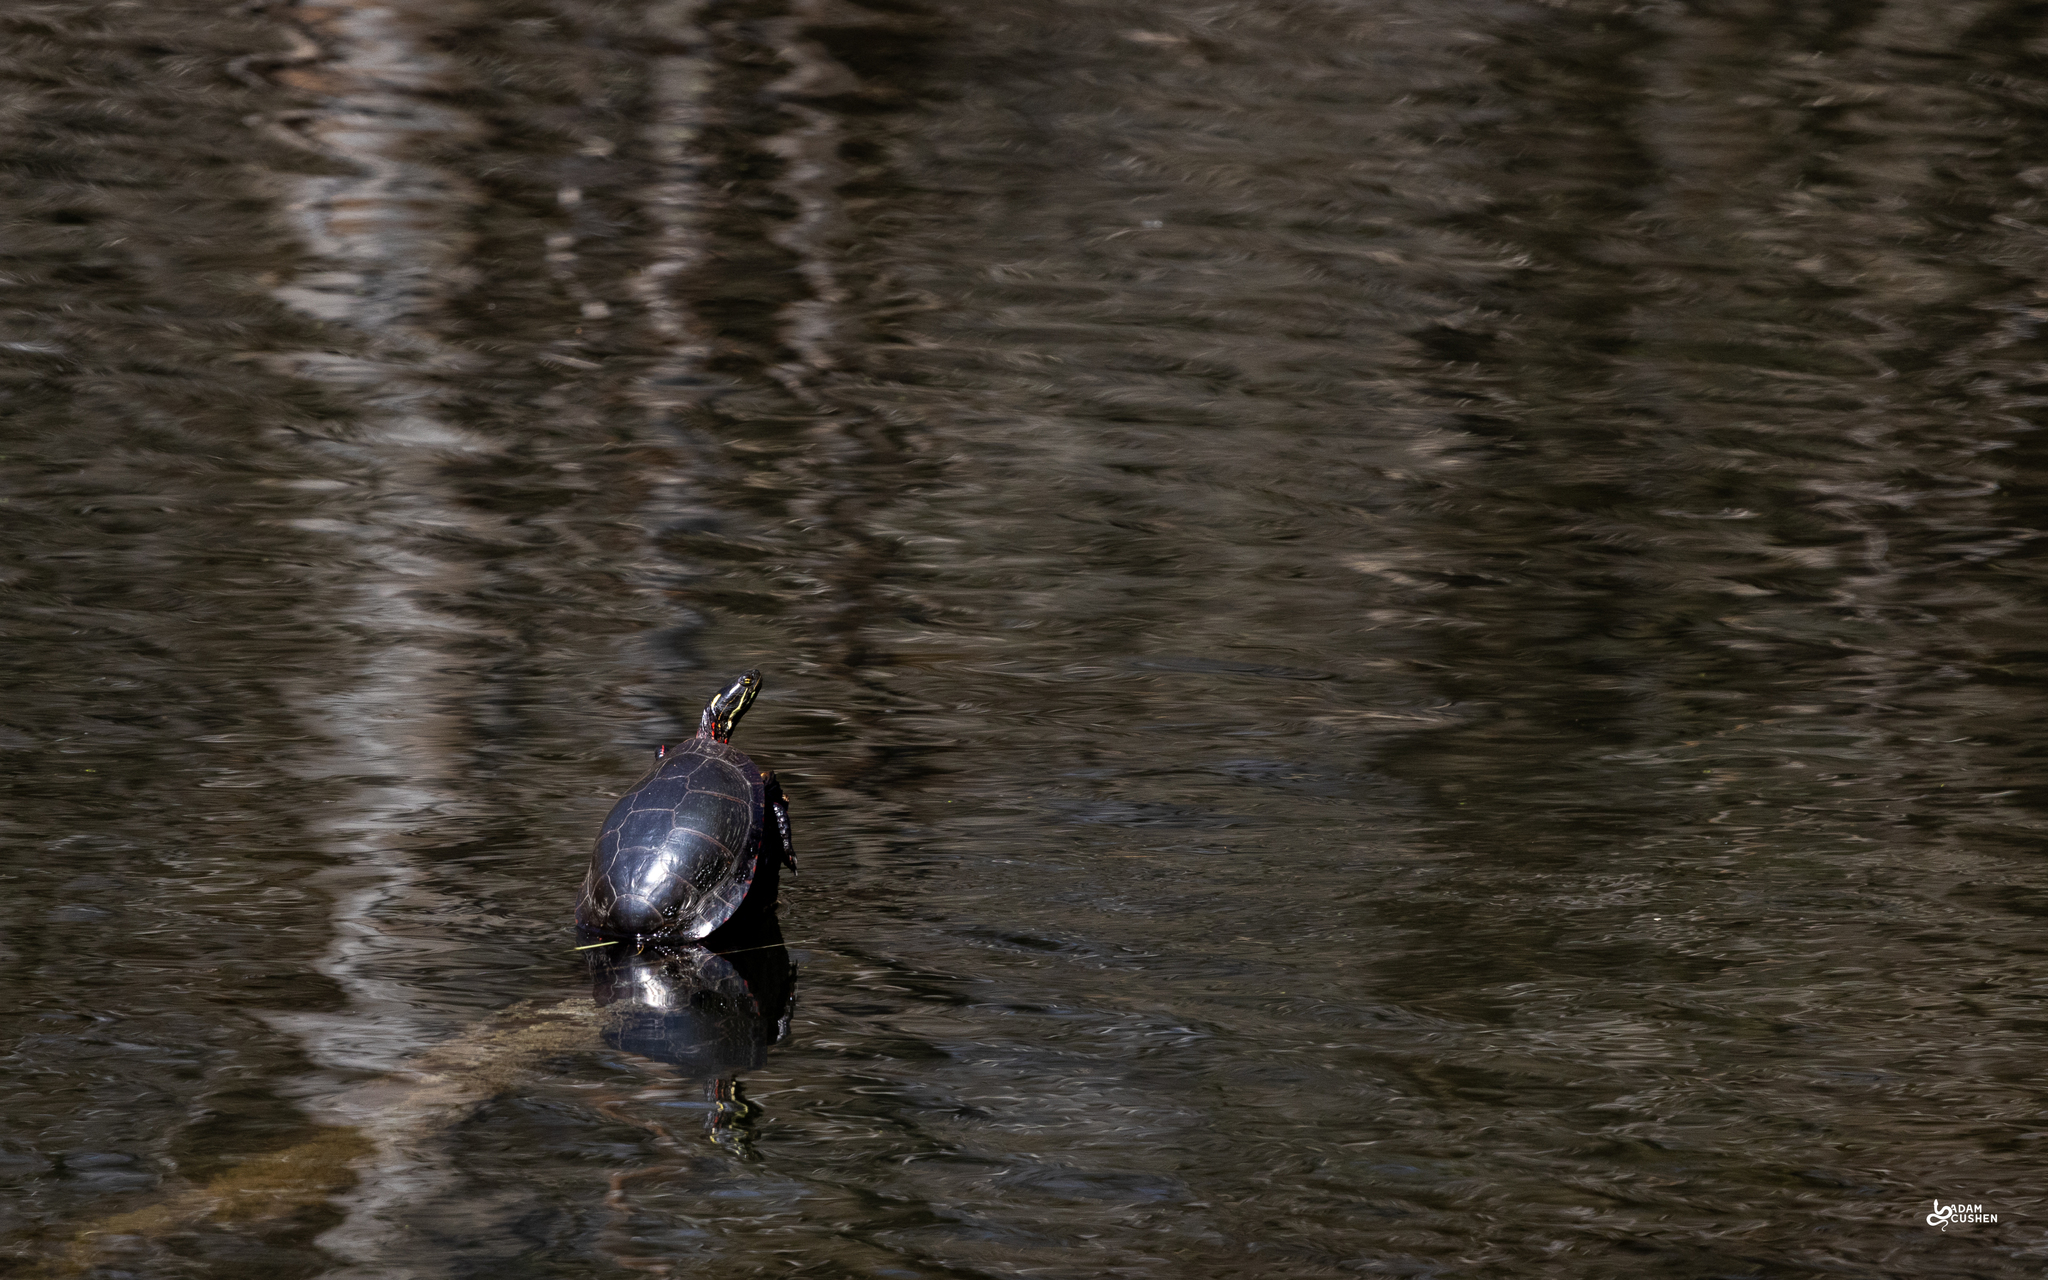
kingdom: Animalia
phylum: Chordata
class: Testudines
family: Emydidae
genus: Chrysemys
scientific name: Chrysemys picta
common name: Painted turtle
